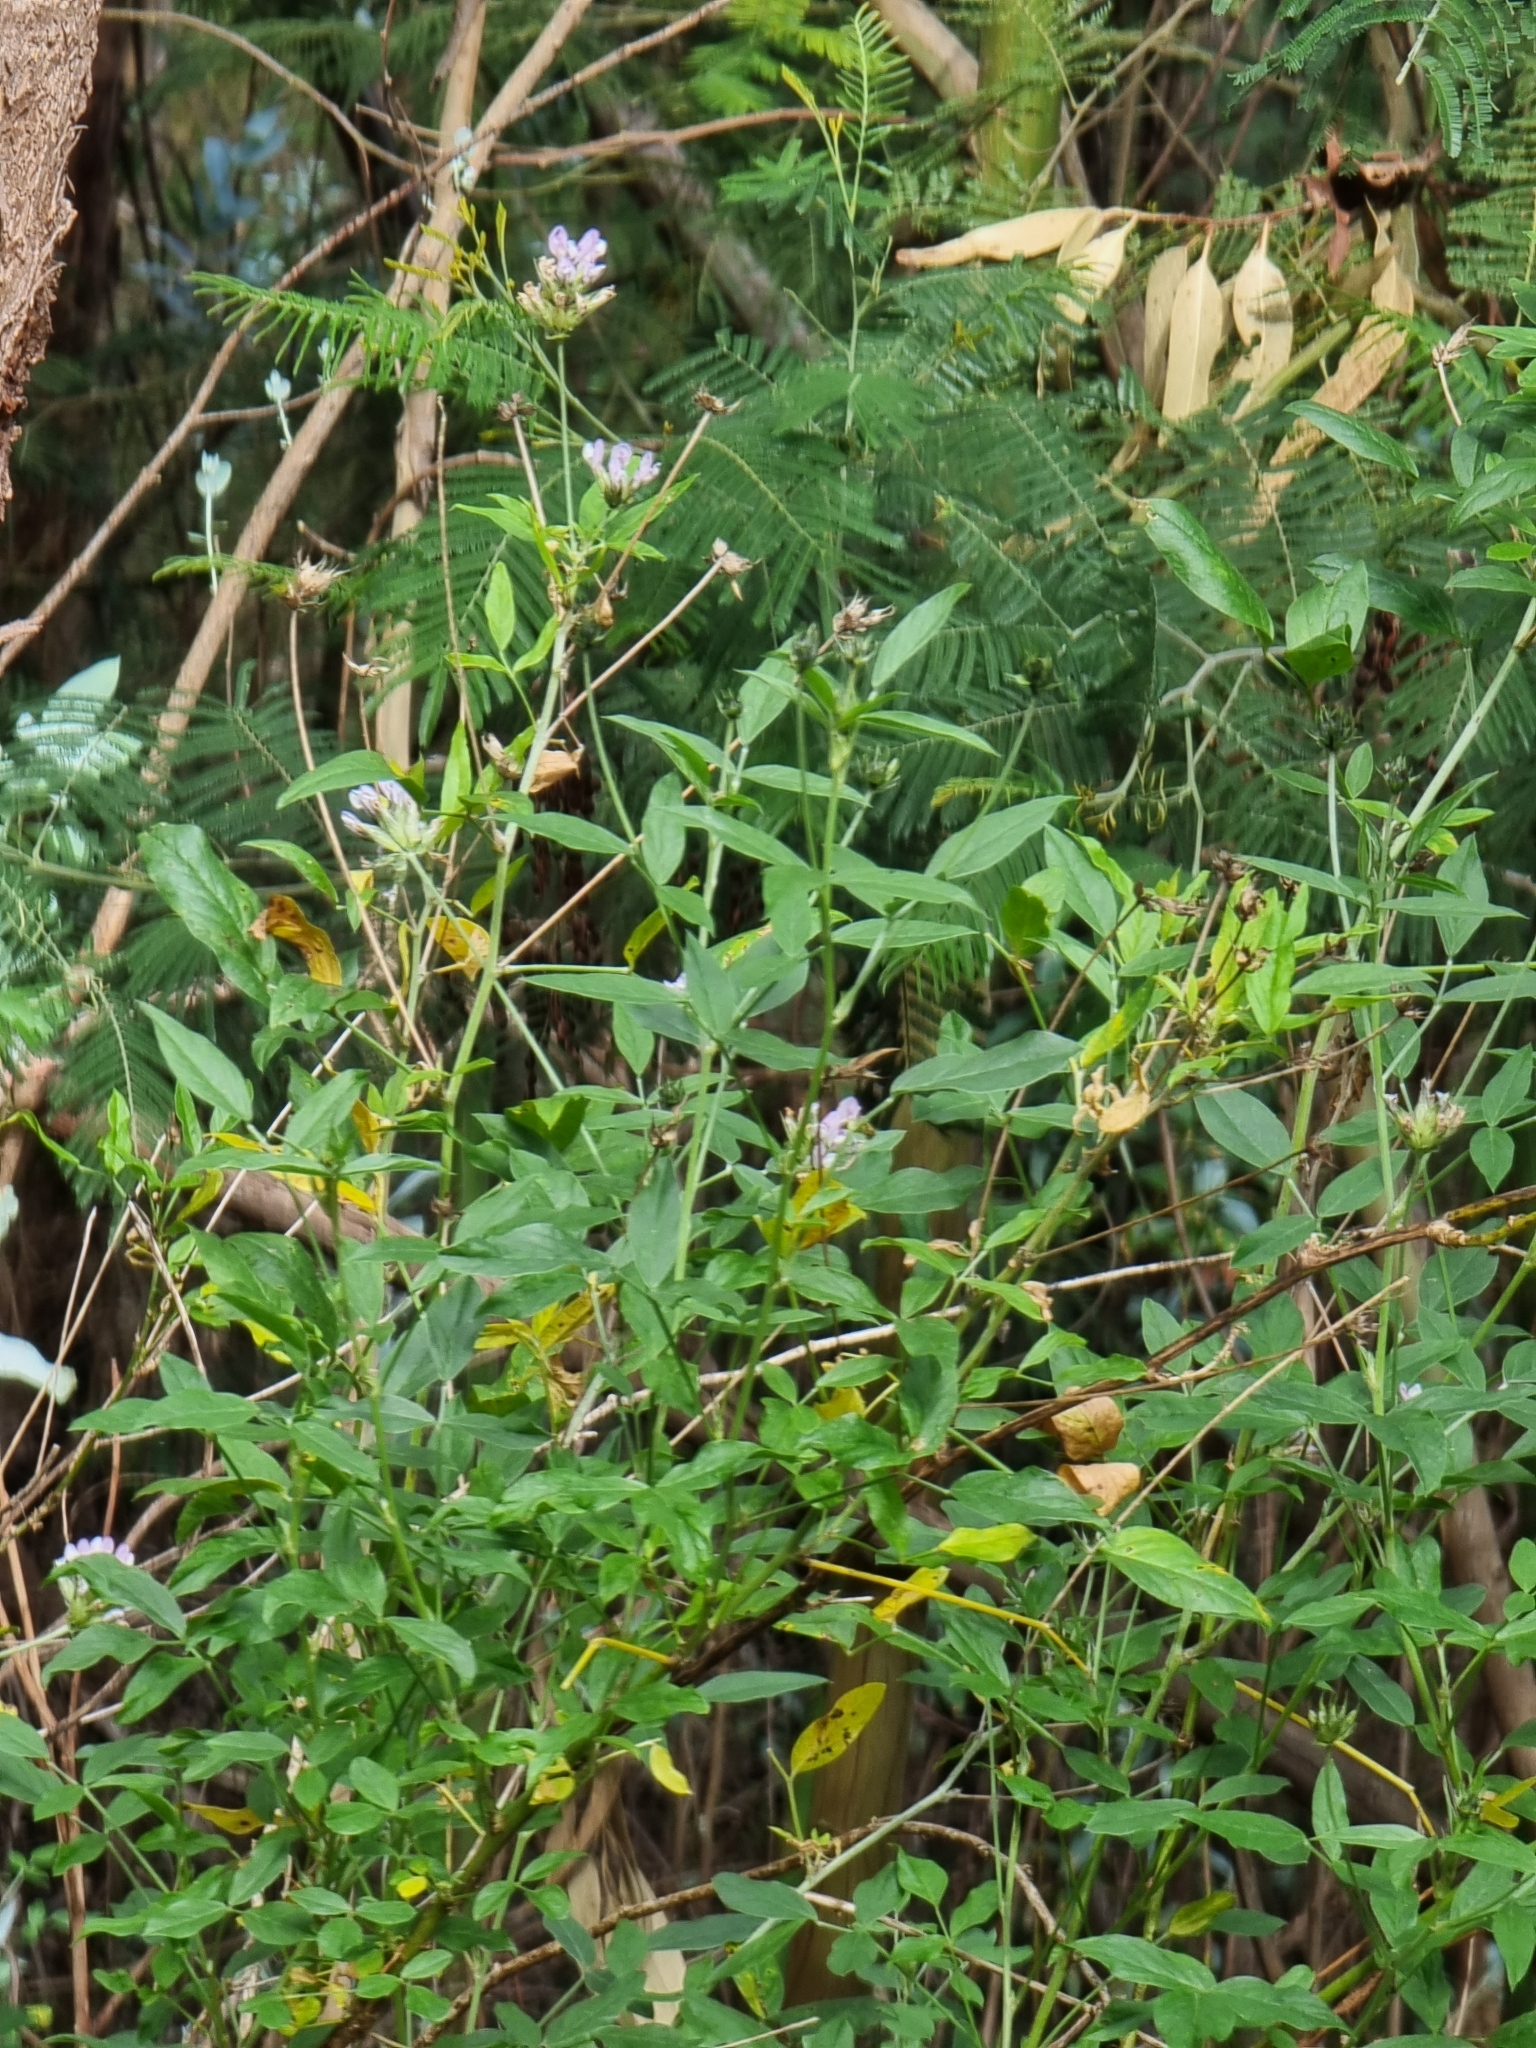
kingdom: Plantae
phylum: Tracheophyta
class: Magnoliopsida
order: Fabales
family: Fabaceae
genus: Bituminaria
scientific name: Bituminaria bituminosa
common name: Arabian pea
